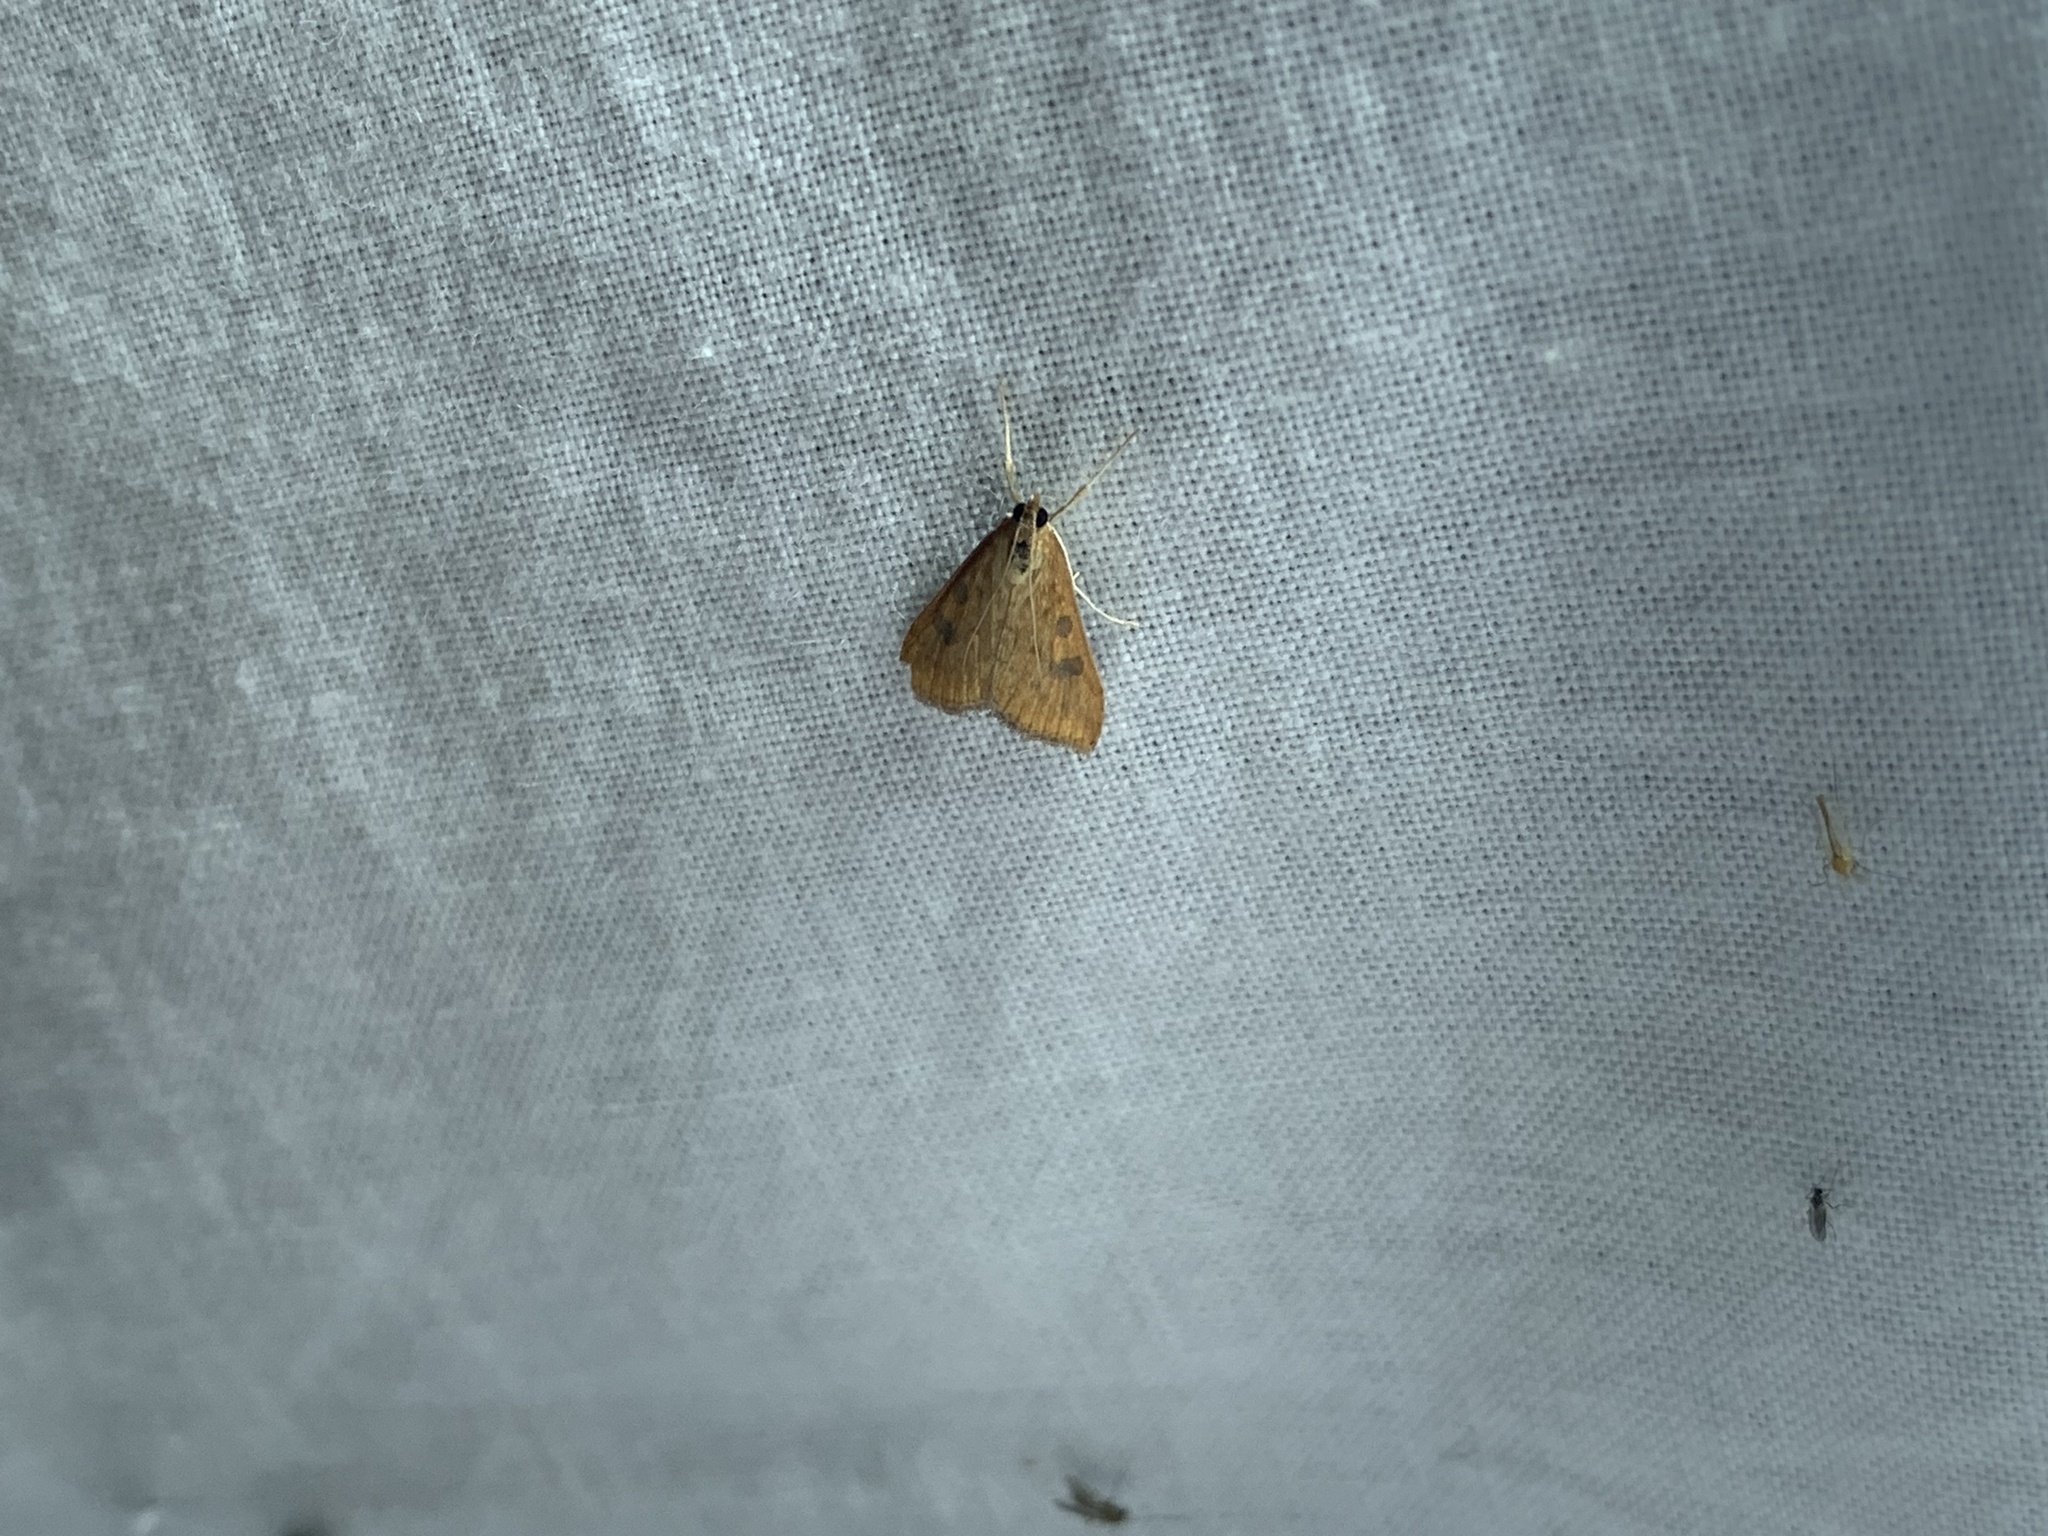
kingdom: Animalia
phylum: Arthropoda
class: Insecta
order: Lepidoptera
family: Crambidae
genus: Udea
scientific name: Udea ferrugalis
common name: Rusty dot
